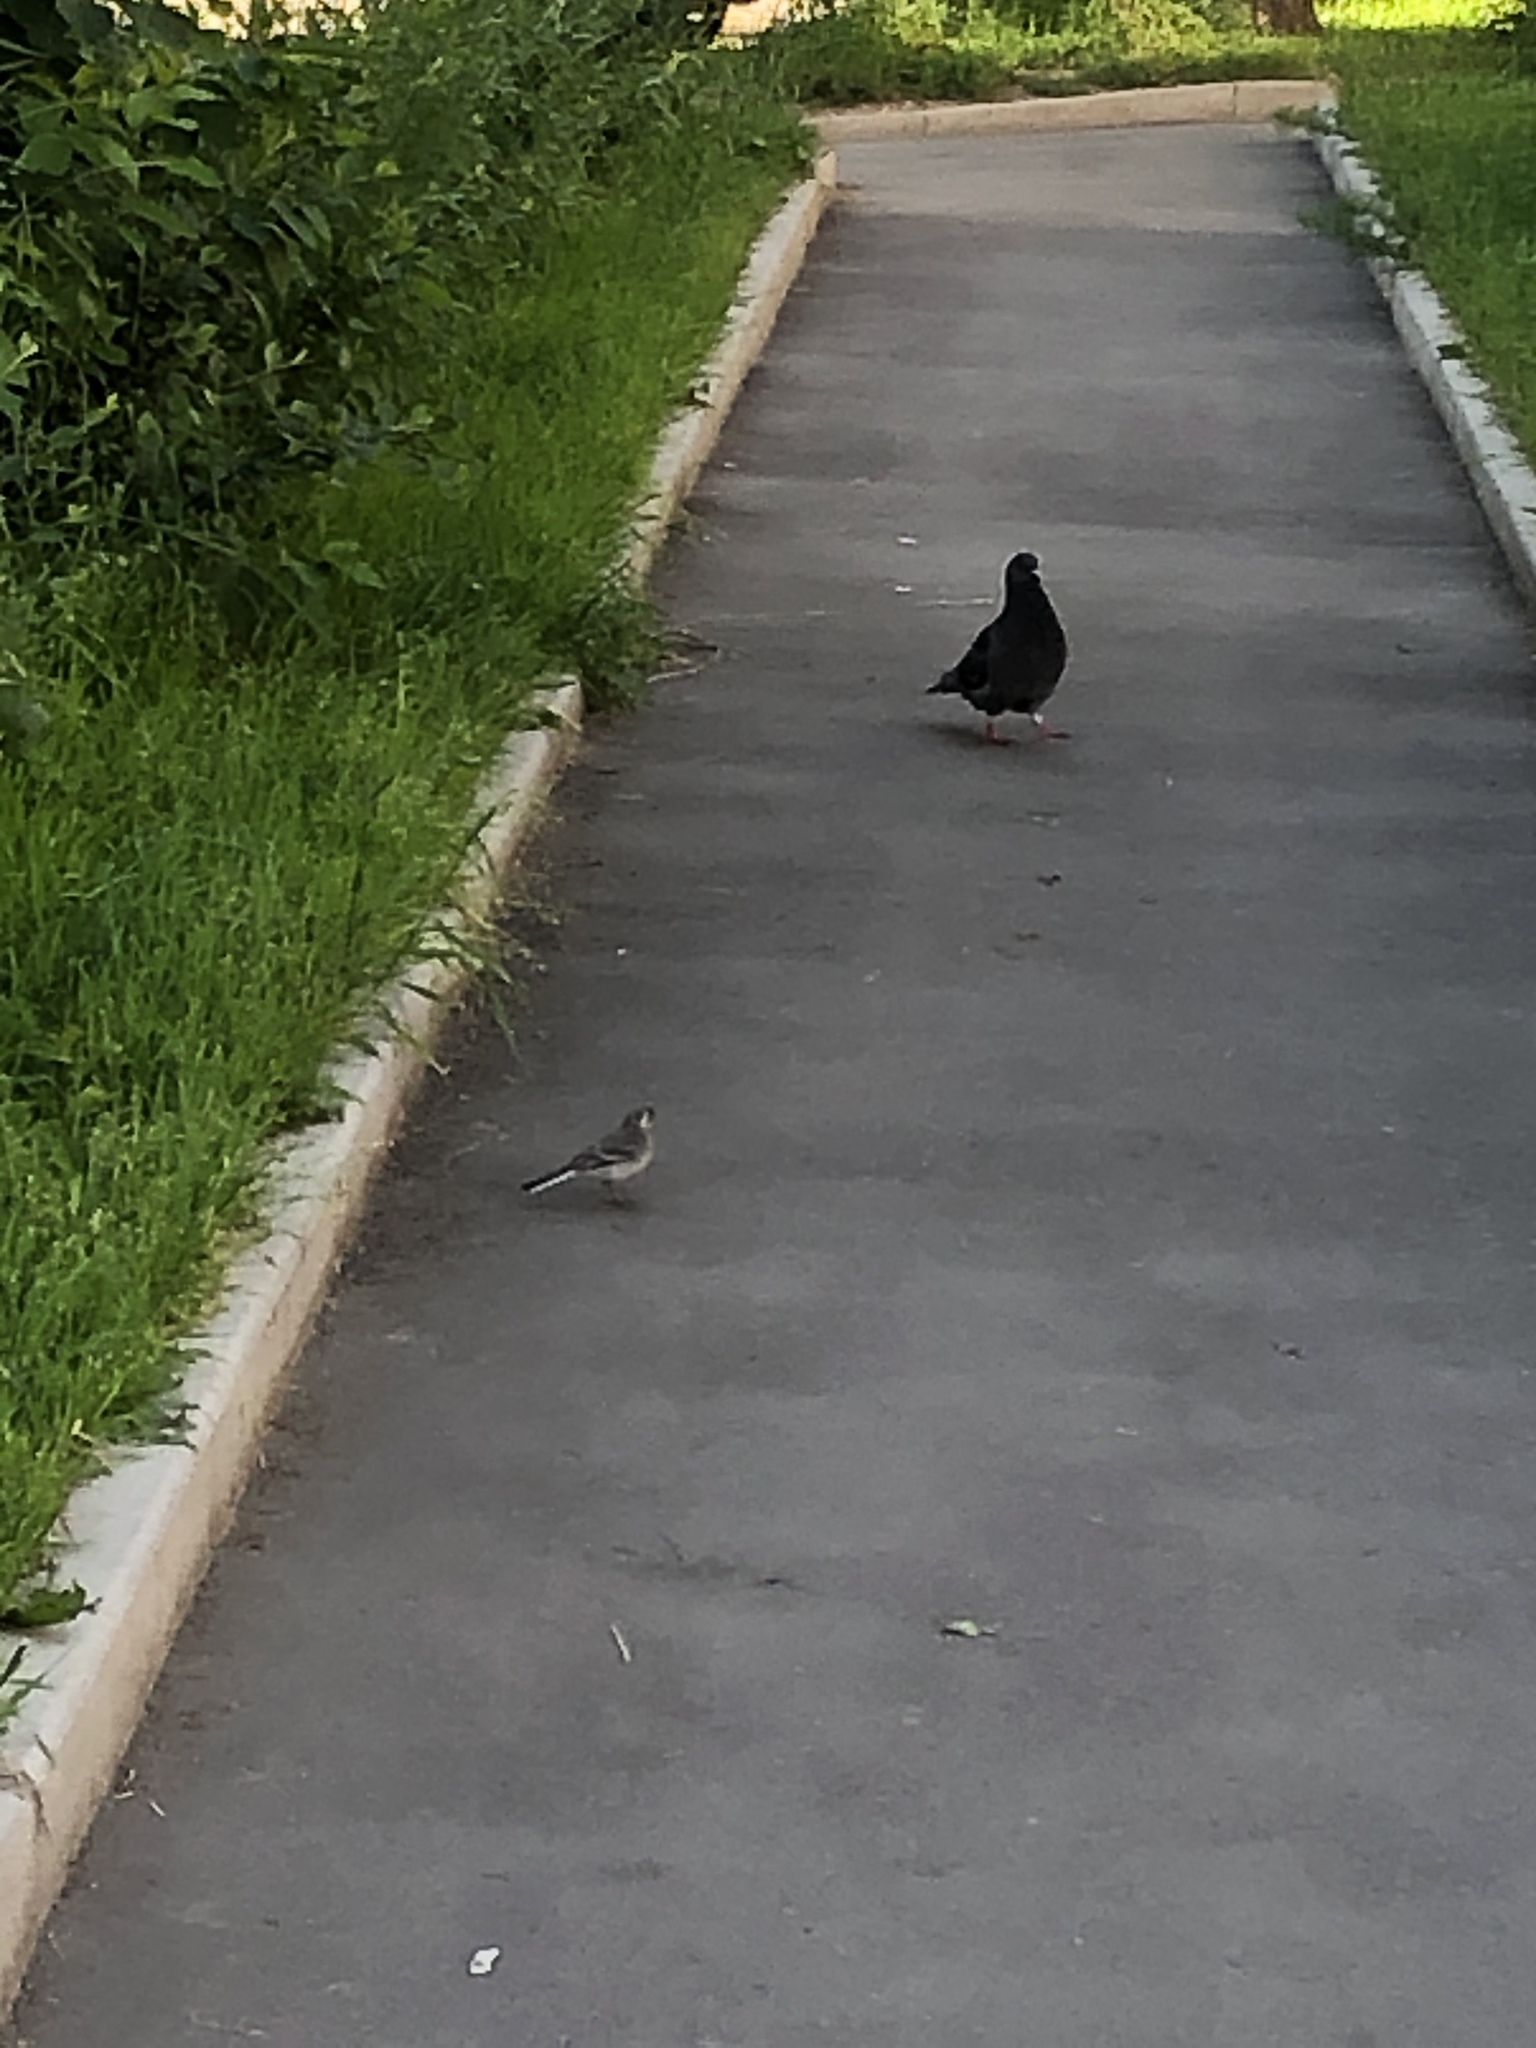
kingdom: Animalia
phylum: Chordata
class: Aves
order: Passeriformes
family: Motacillidae
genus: Motacilla
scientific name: Motacilla alba
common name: White wagtail
